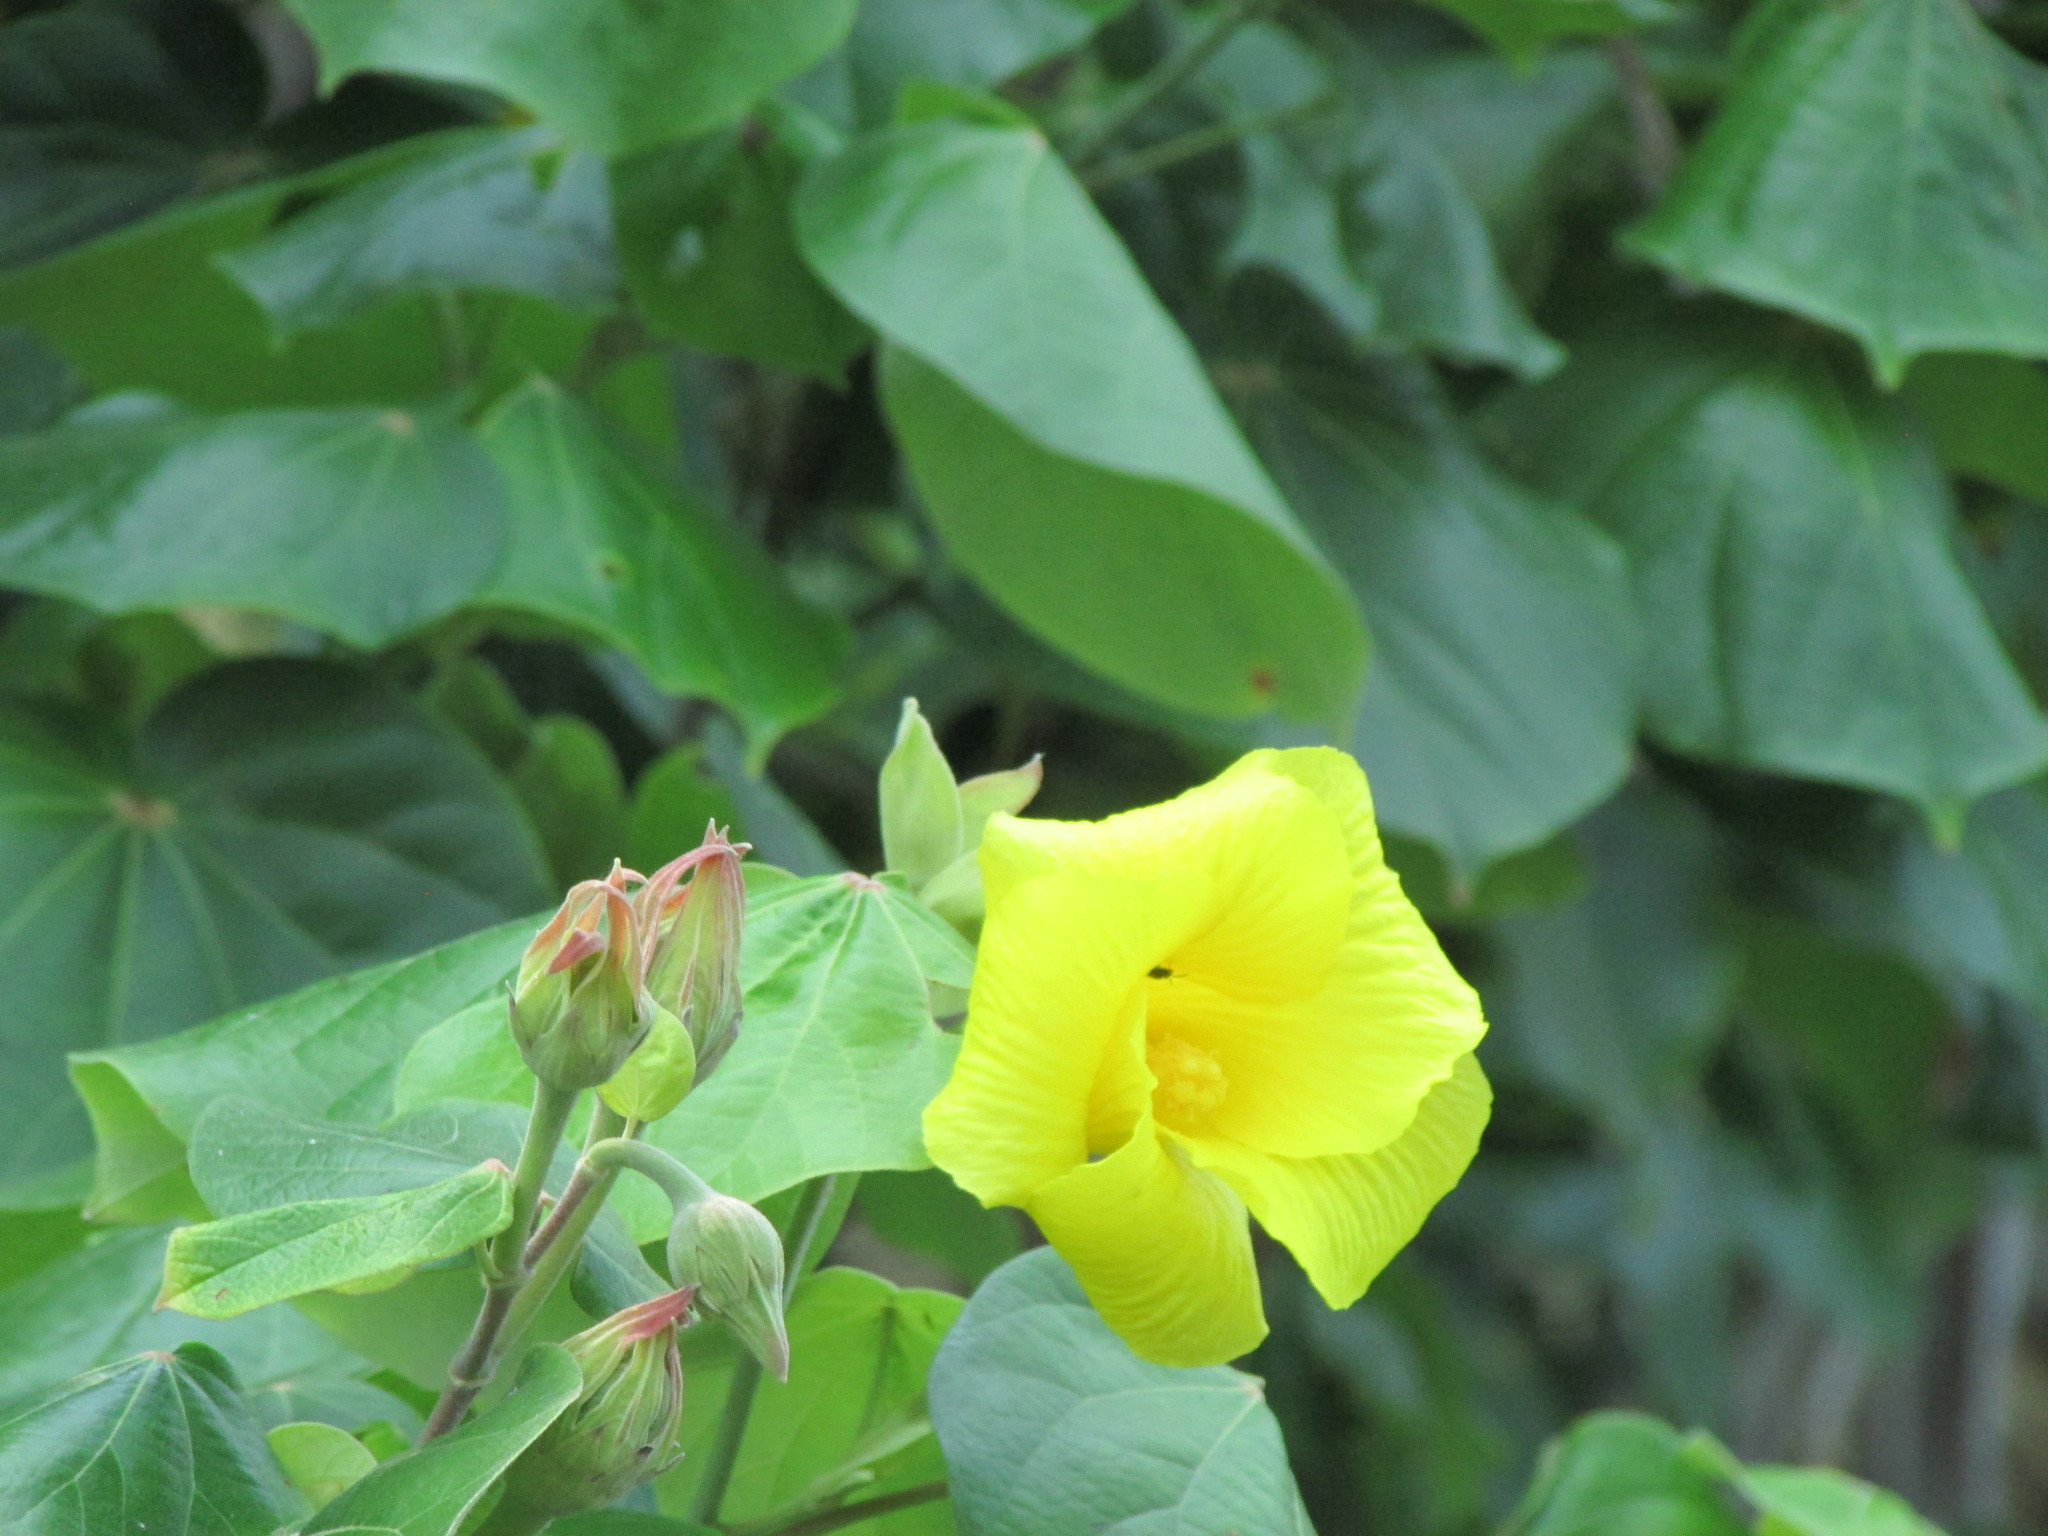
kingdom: Plantae
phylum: Tracheophyta
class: Magnoliopsida
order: Malvales
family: Malvaceae
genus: Gossypium
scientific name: Gossypium hirsutum
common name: Cotton
